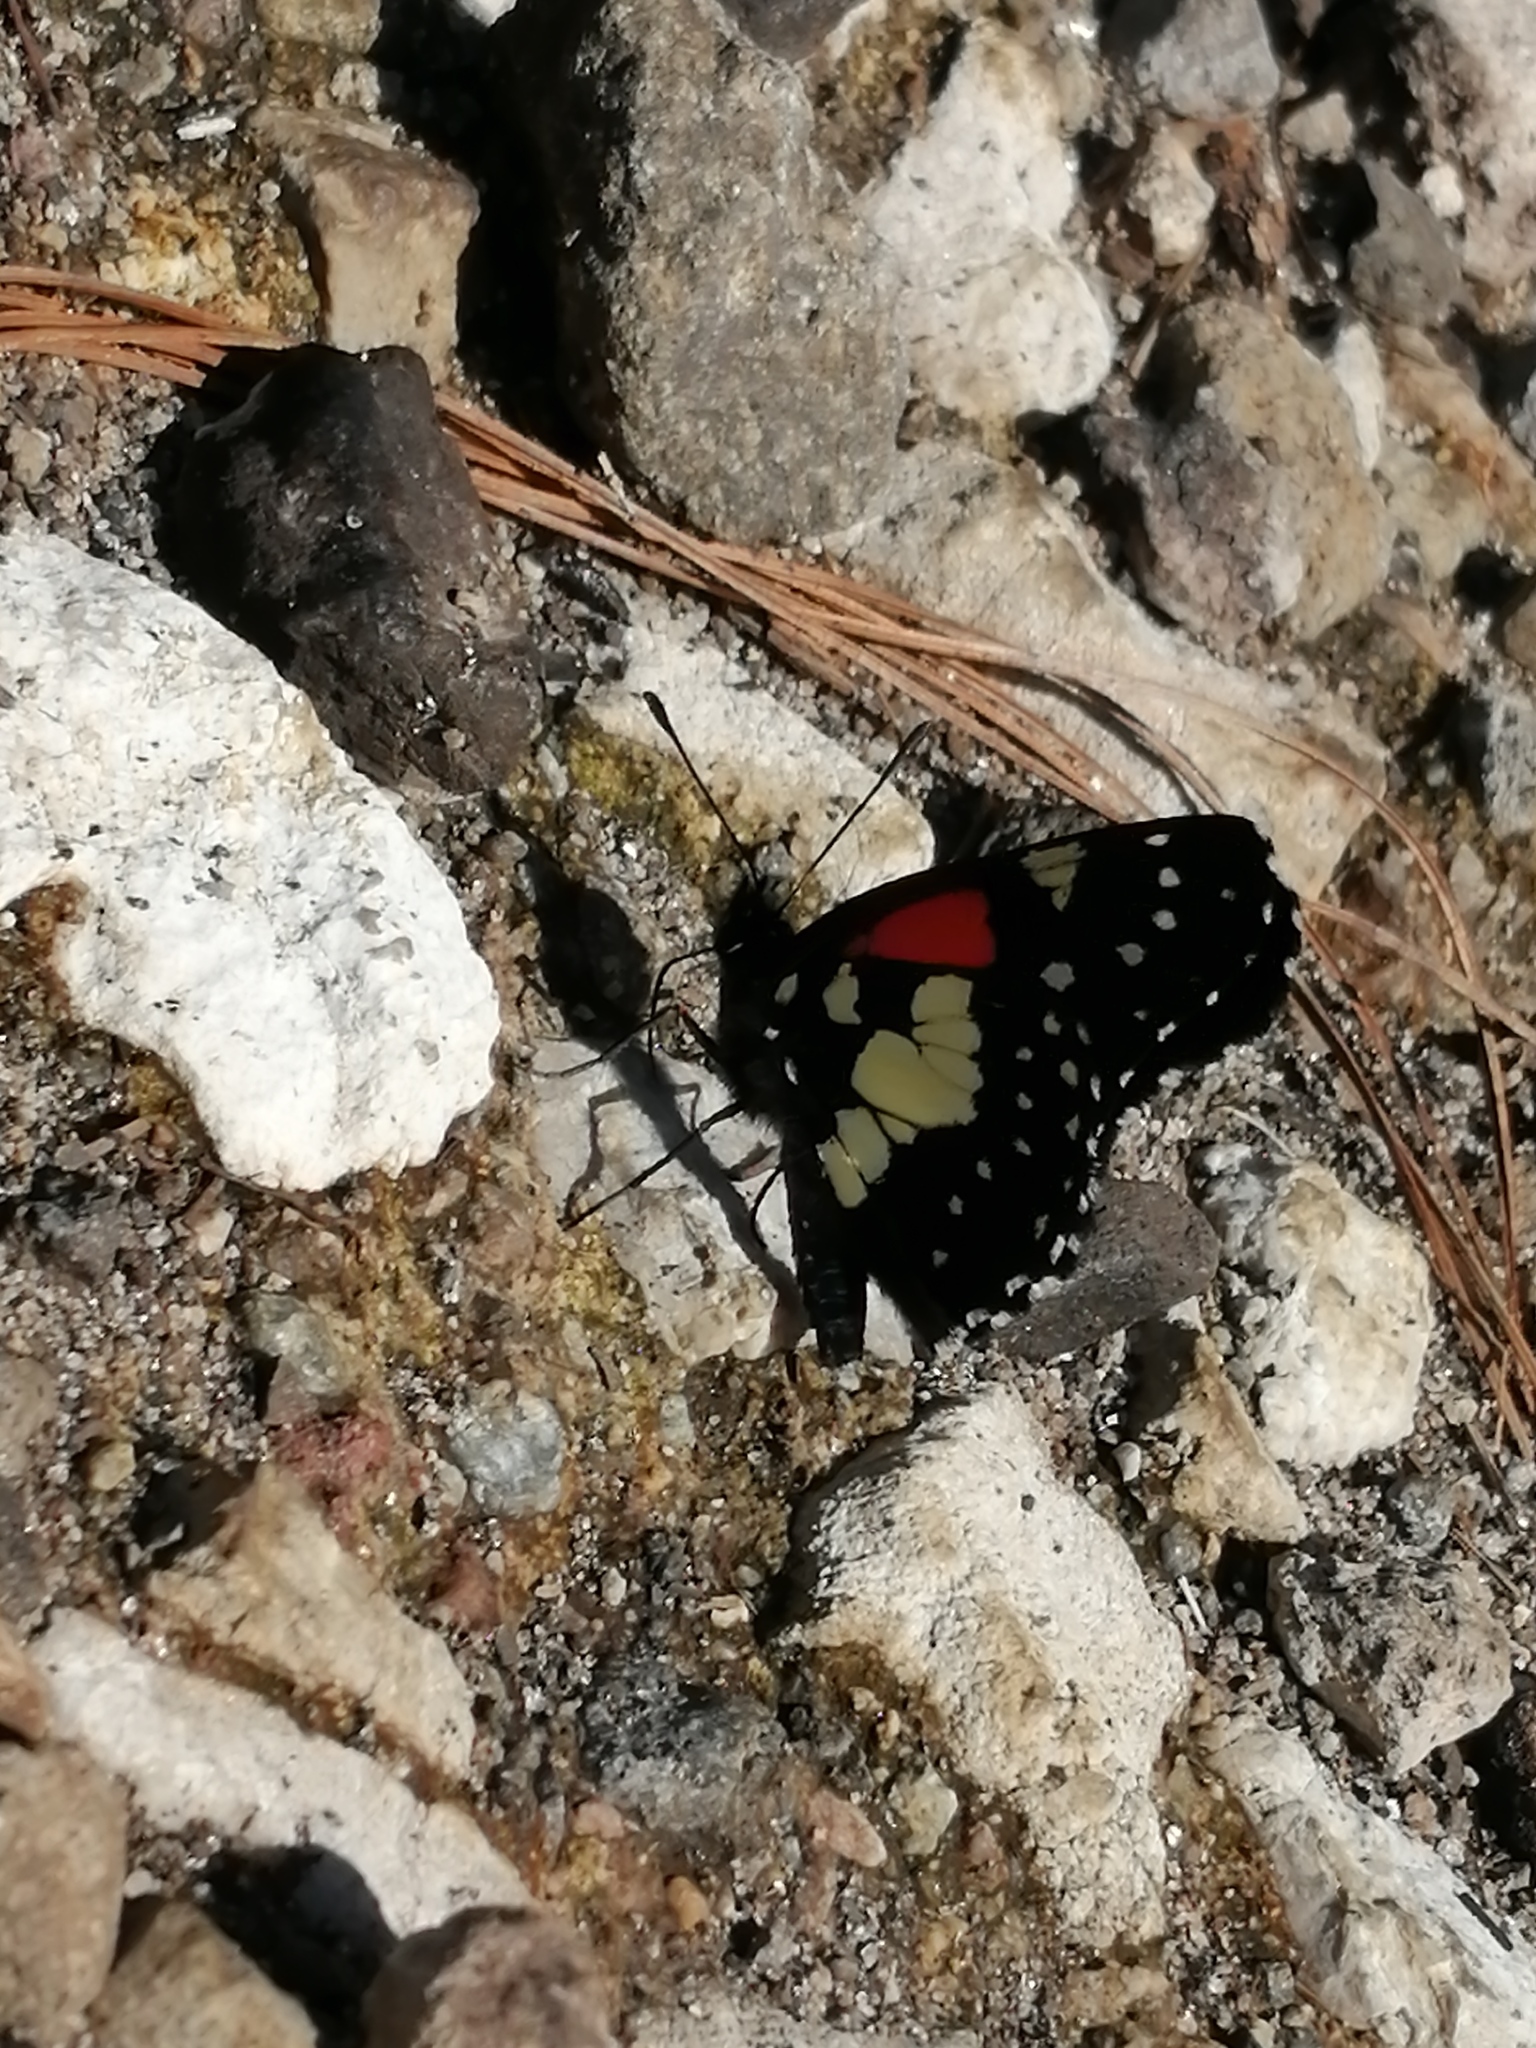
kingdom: Animalia
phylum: Arthropoda
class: Insecta
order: Lepidoptera
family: Nymphalidae
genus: Chlosyne
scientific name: Chlosyne gaudialis
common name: Gaudy checkerspot
